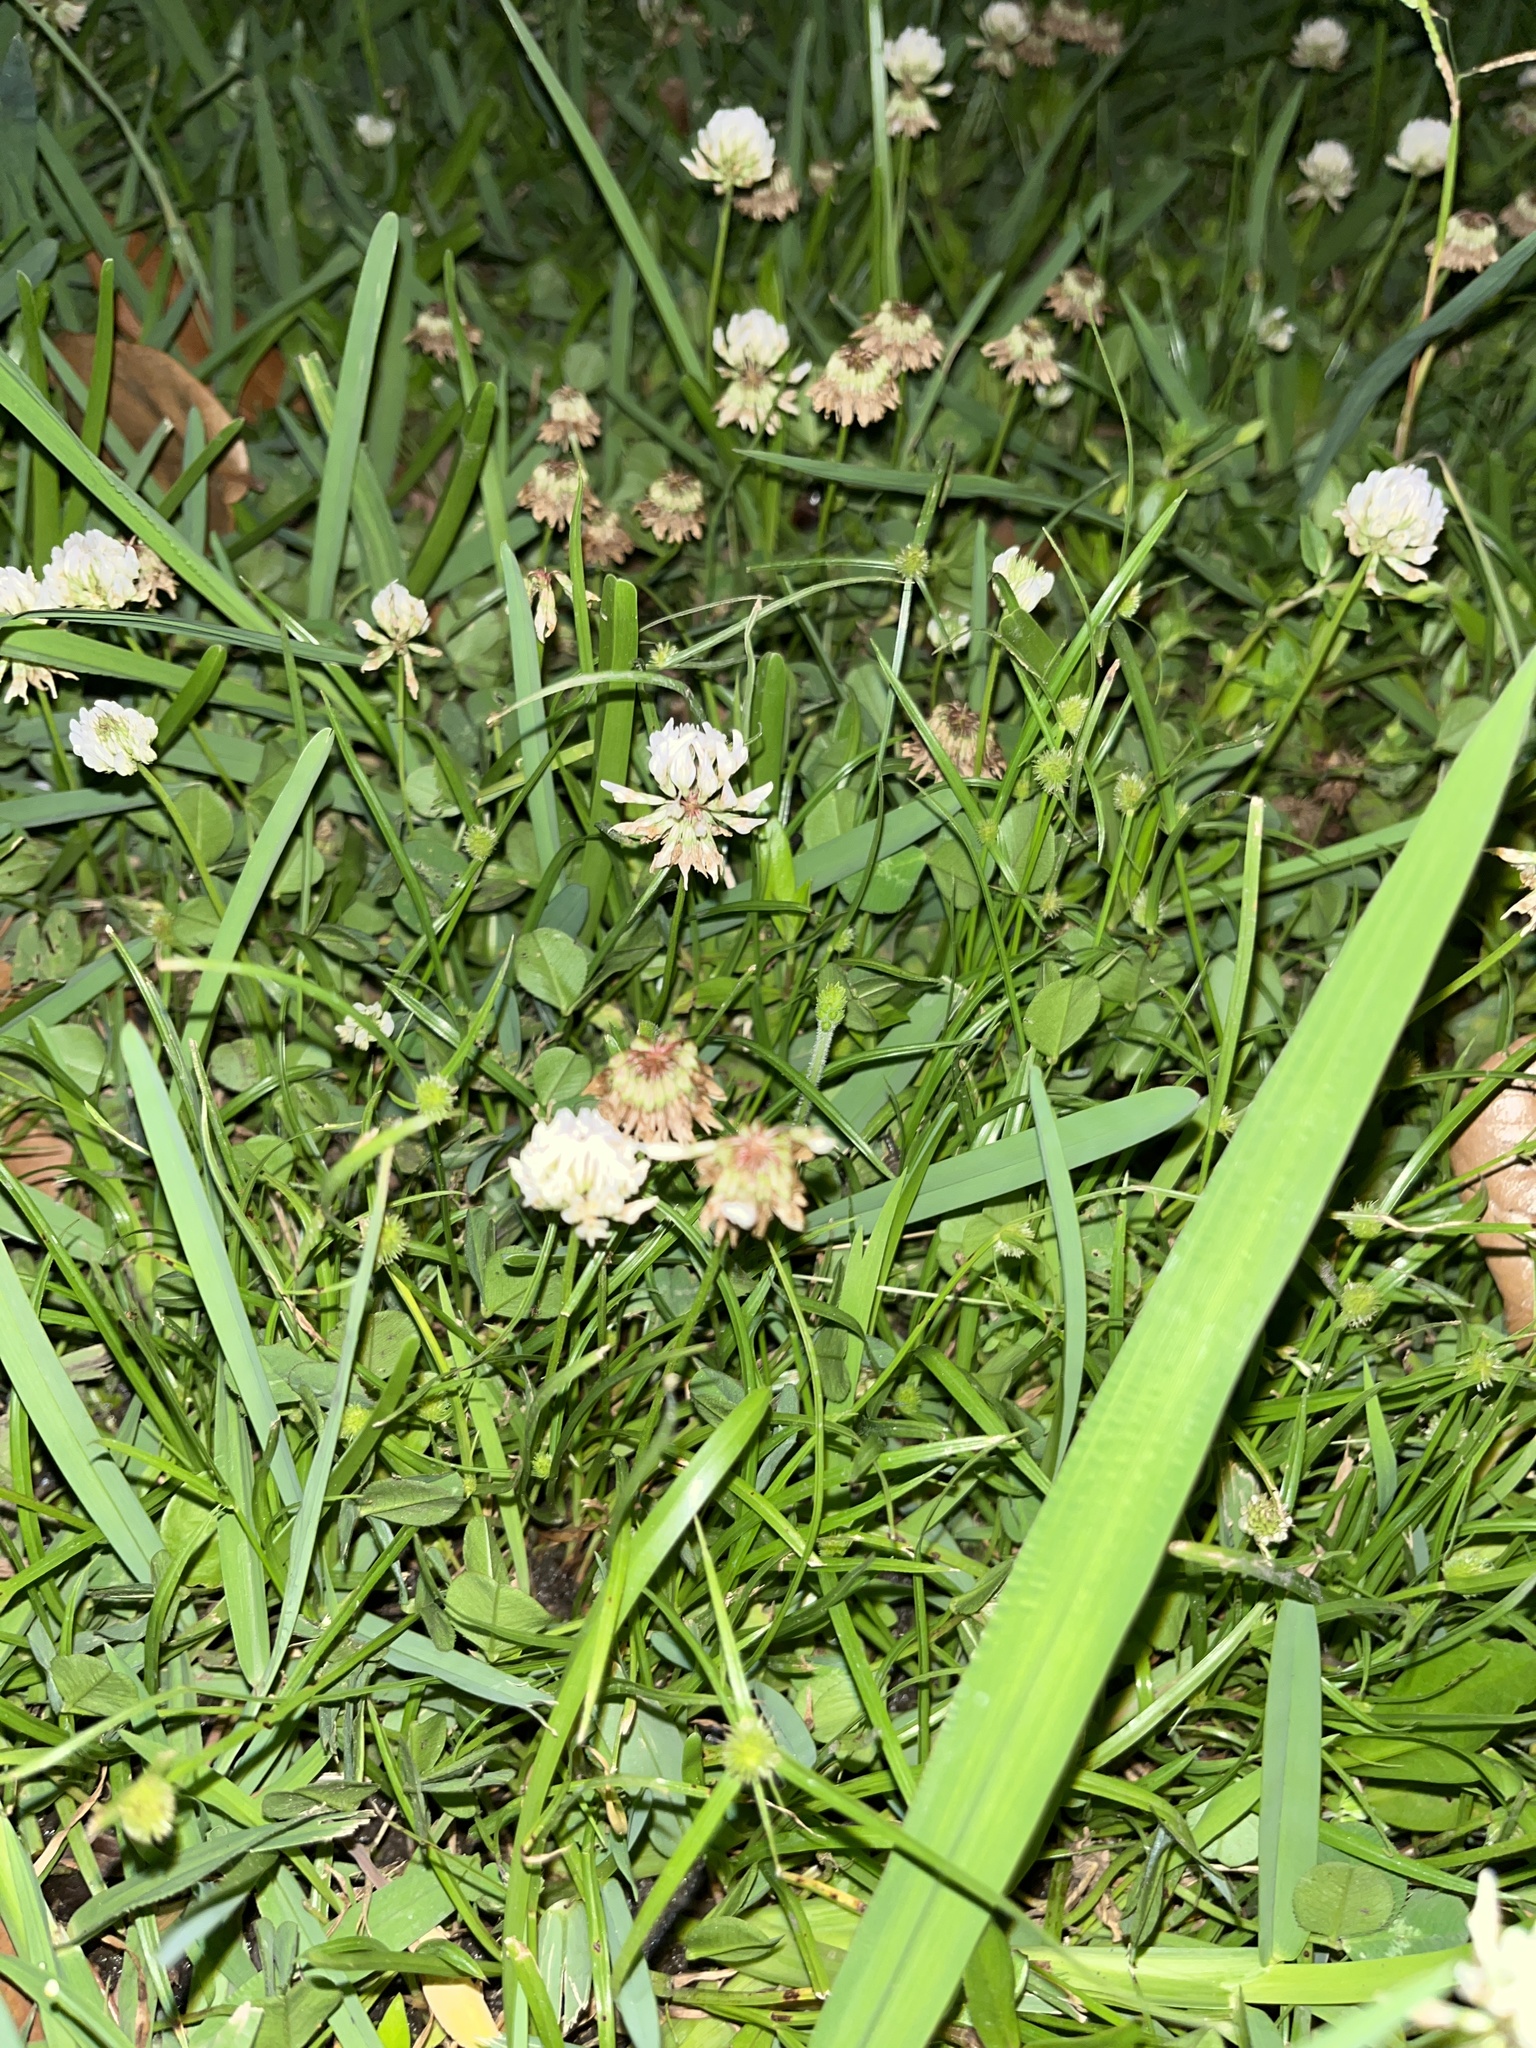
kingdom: Plantae
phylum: Tracheophyta
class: Magnoliopsida
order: Fabales
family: Fabaceae
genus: Trifolium
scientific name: Trifolium repens
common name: White clover
